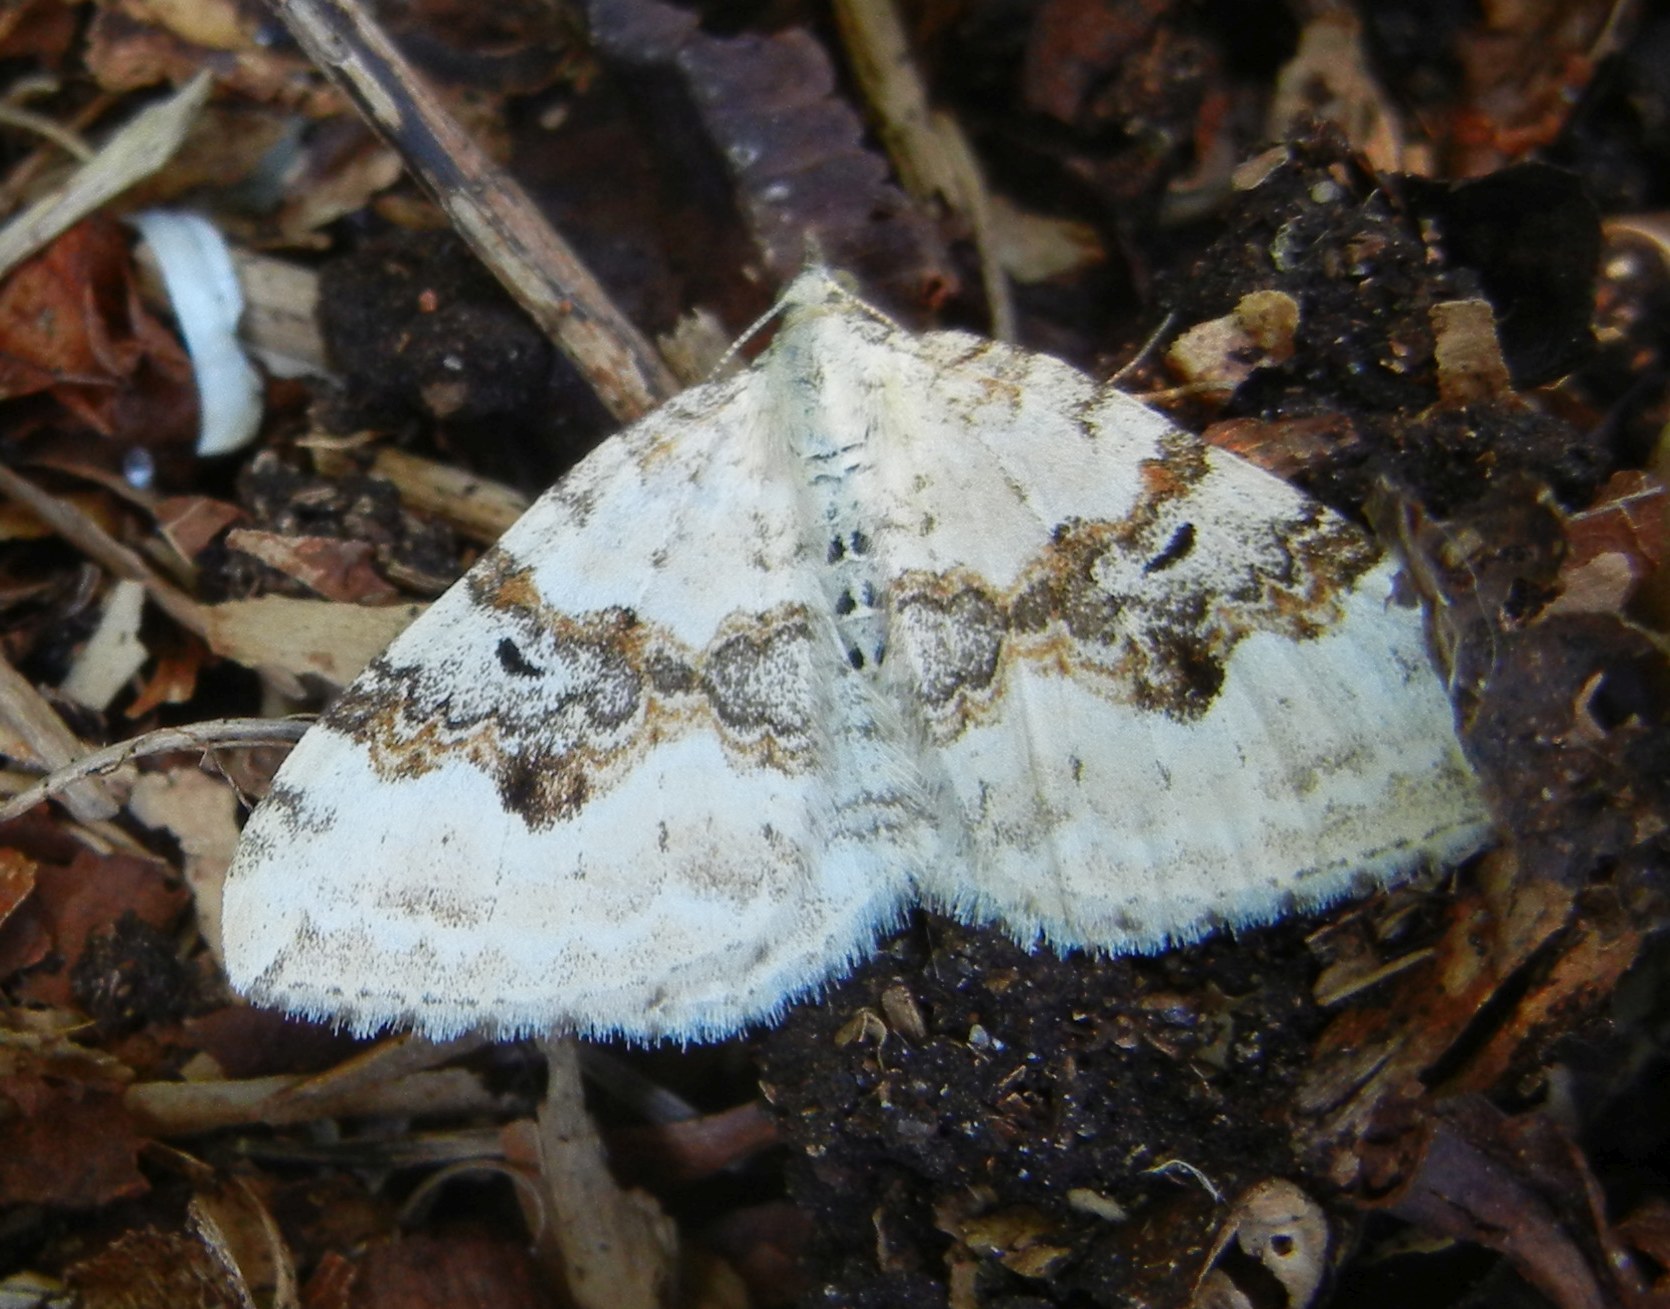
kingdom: Animalia
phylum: Arthropoda
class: Insecta
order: Lepidoptera
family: Geometridae
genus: Xanthorhoe
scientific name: Xanthorhoe montanata
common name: Silver-ground carpet
